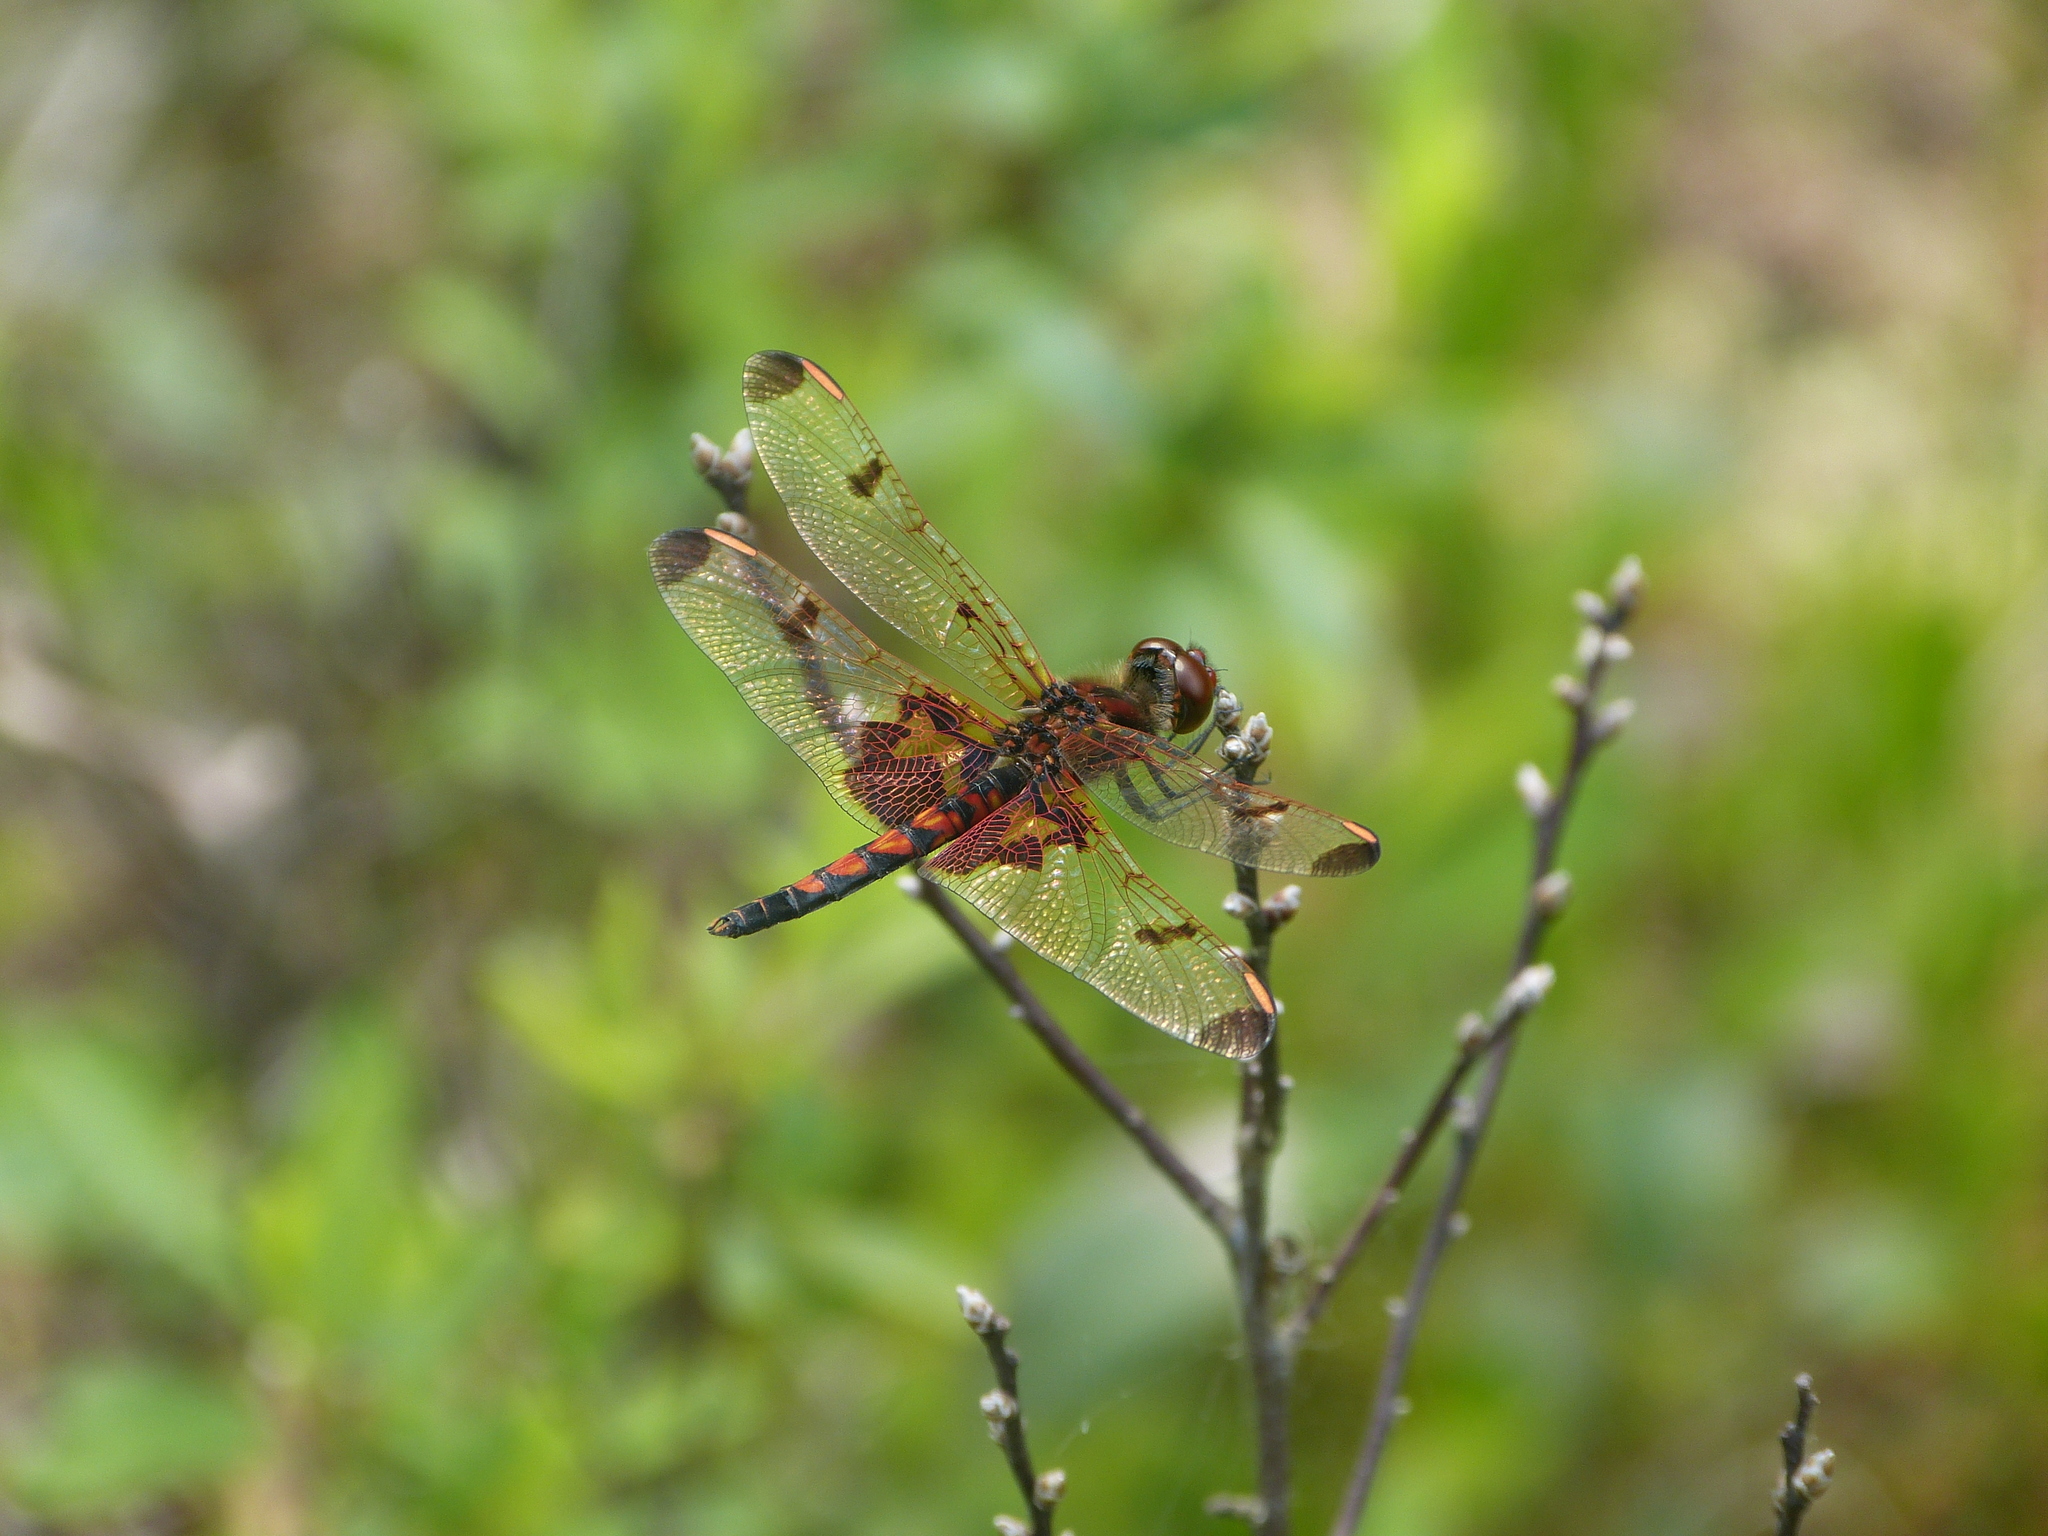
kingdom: Animalia
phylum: Arthropoda
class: Insecta
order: Odonata
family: Libellulidae
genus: Celithemis
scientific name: Celithemis elisa
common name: Calico pennant
